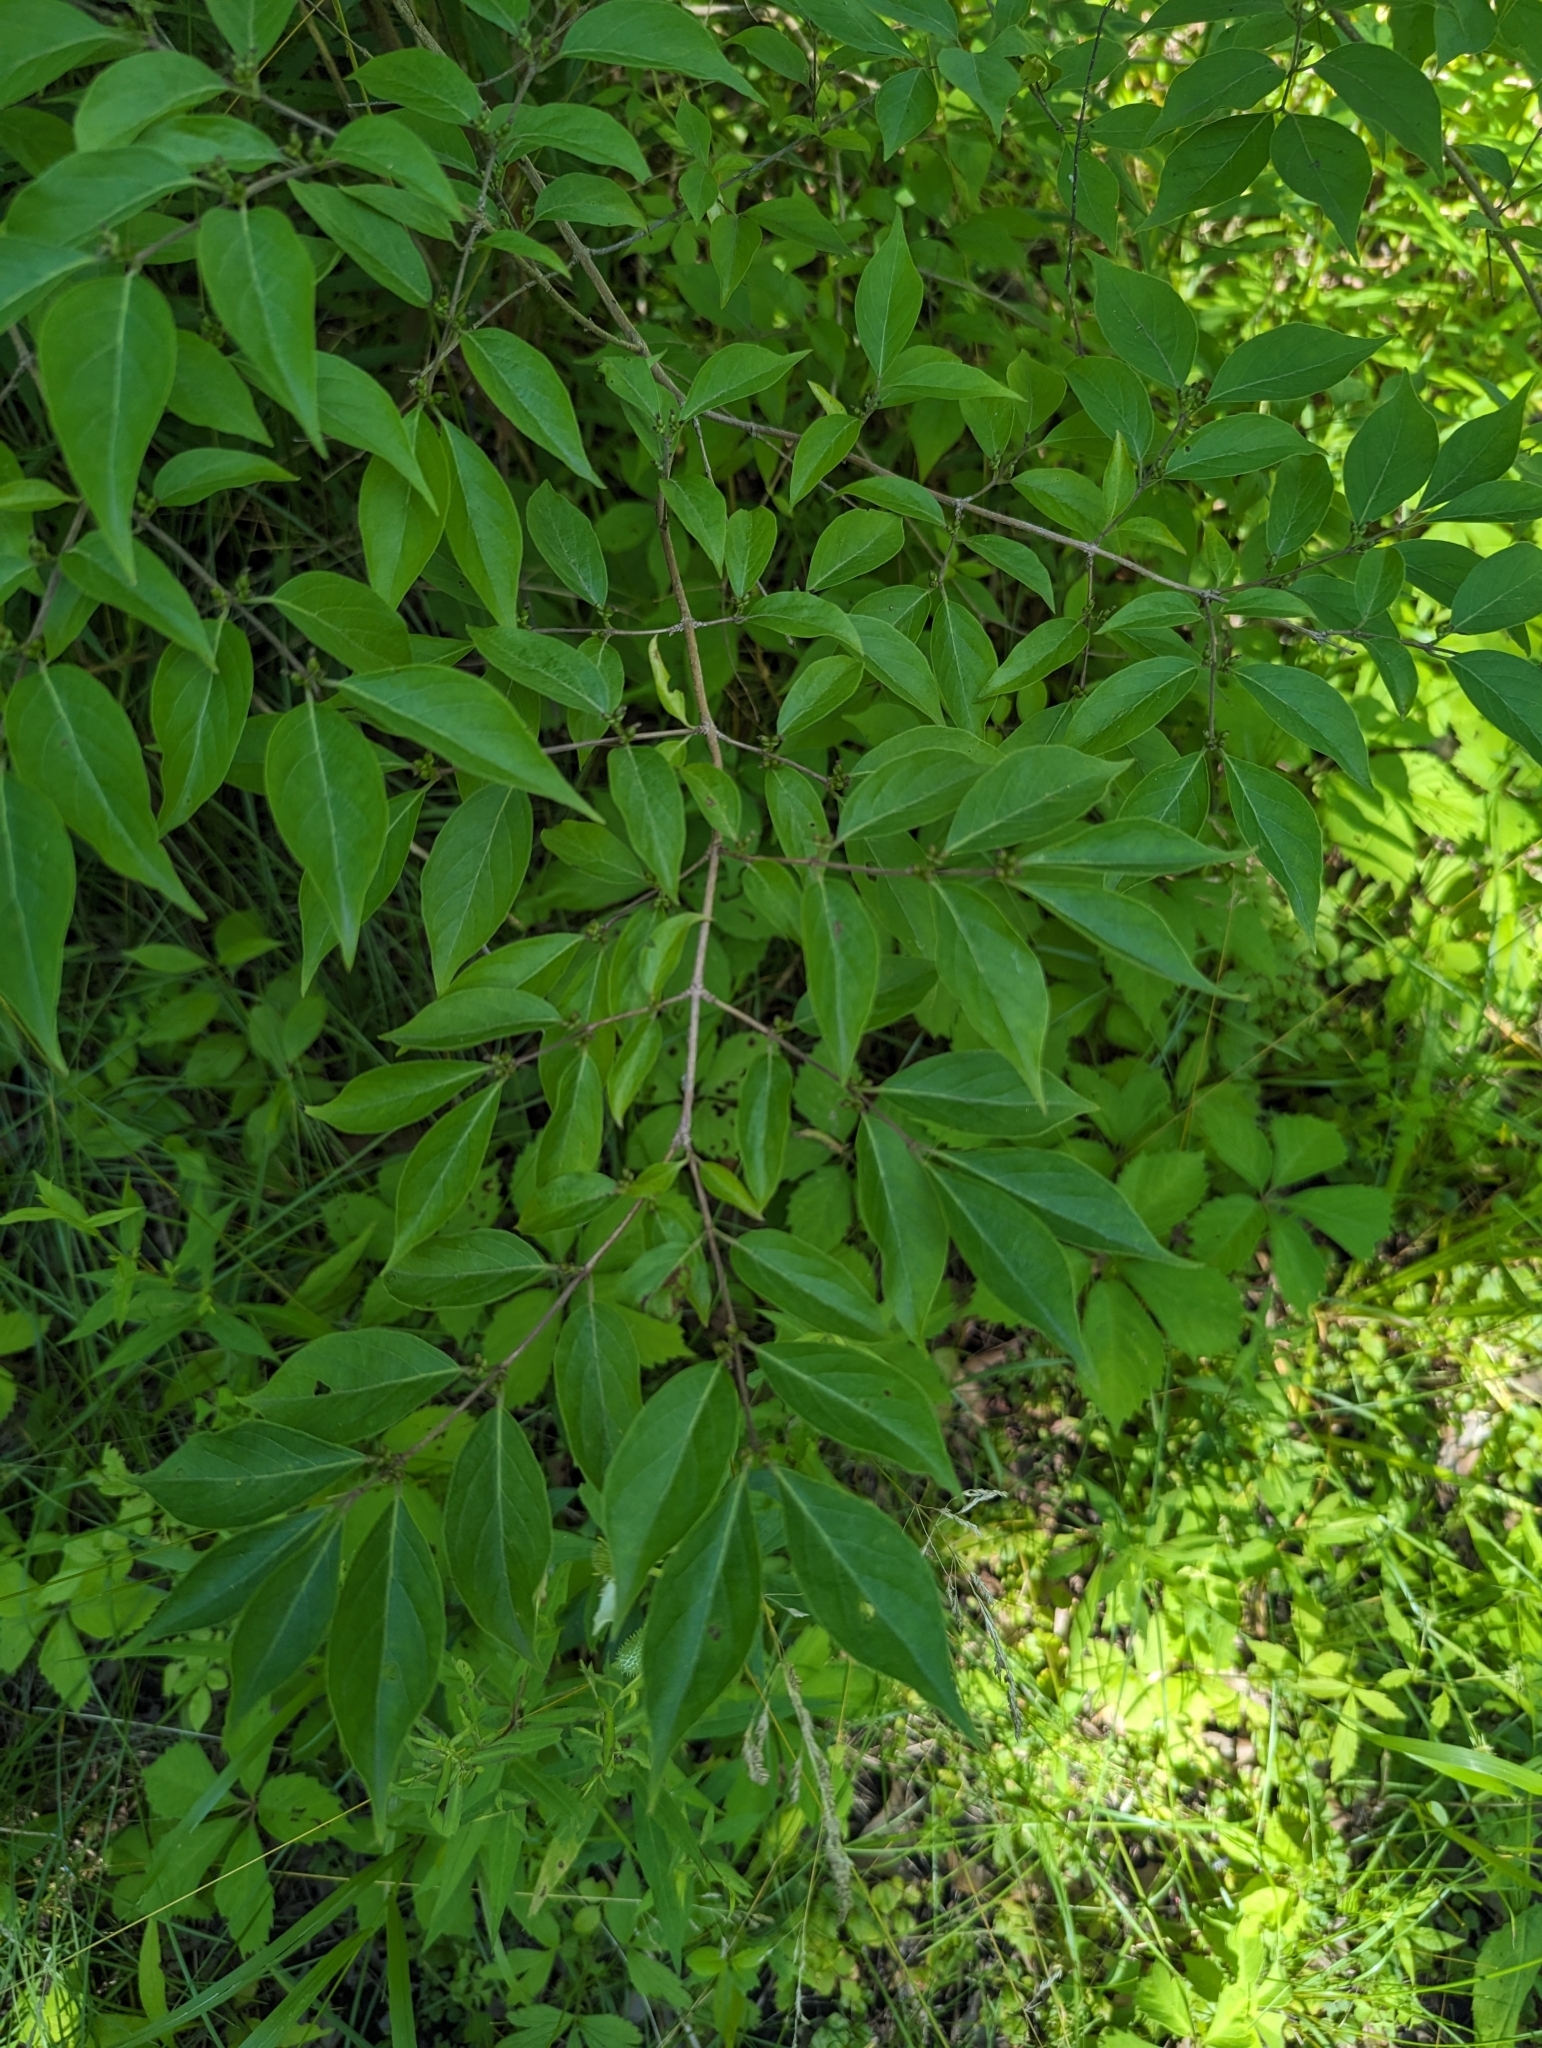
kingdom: Plantae
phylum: Tracheophyta
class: Magnoliopsida
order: Dipsacales
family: Caprifoliaceae
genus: Lonicera
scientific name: Lonicera maackii
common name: Amur honeysuckle
